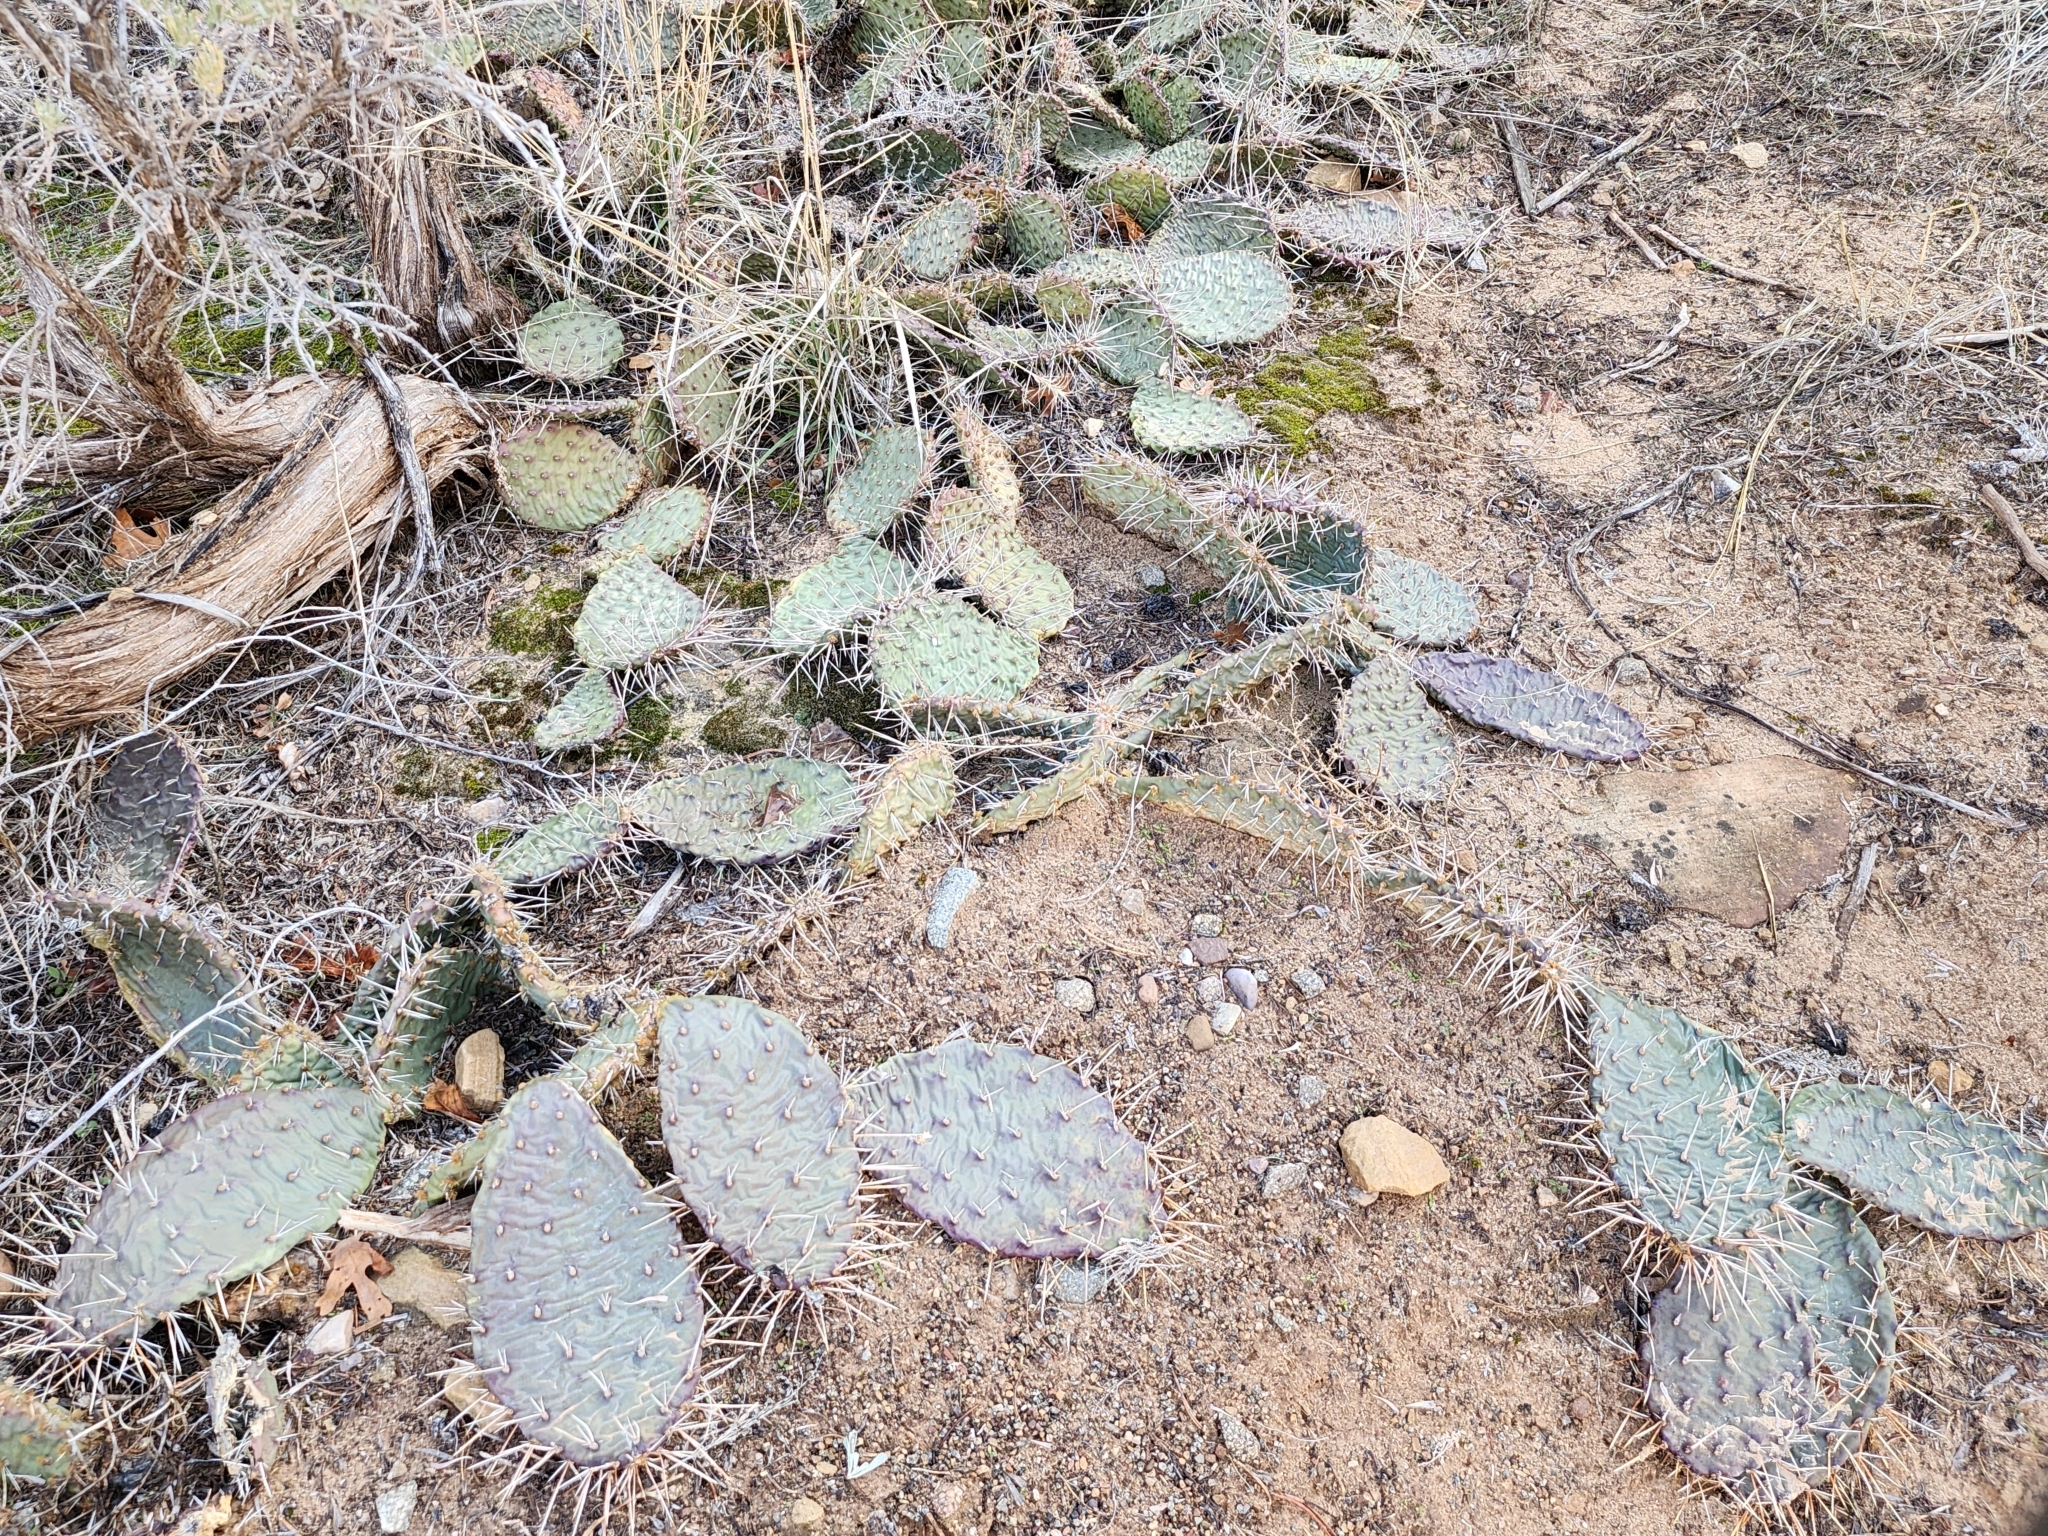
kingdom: Plantae
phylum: Tracheophyta
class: Magnoliopsida
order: Caryophyllales
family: Cactaceae
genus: Opuntia
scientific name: Opuntia phaeacantha
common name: New mexico prickly-pear
